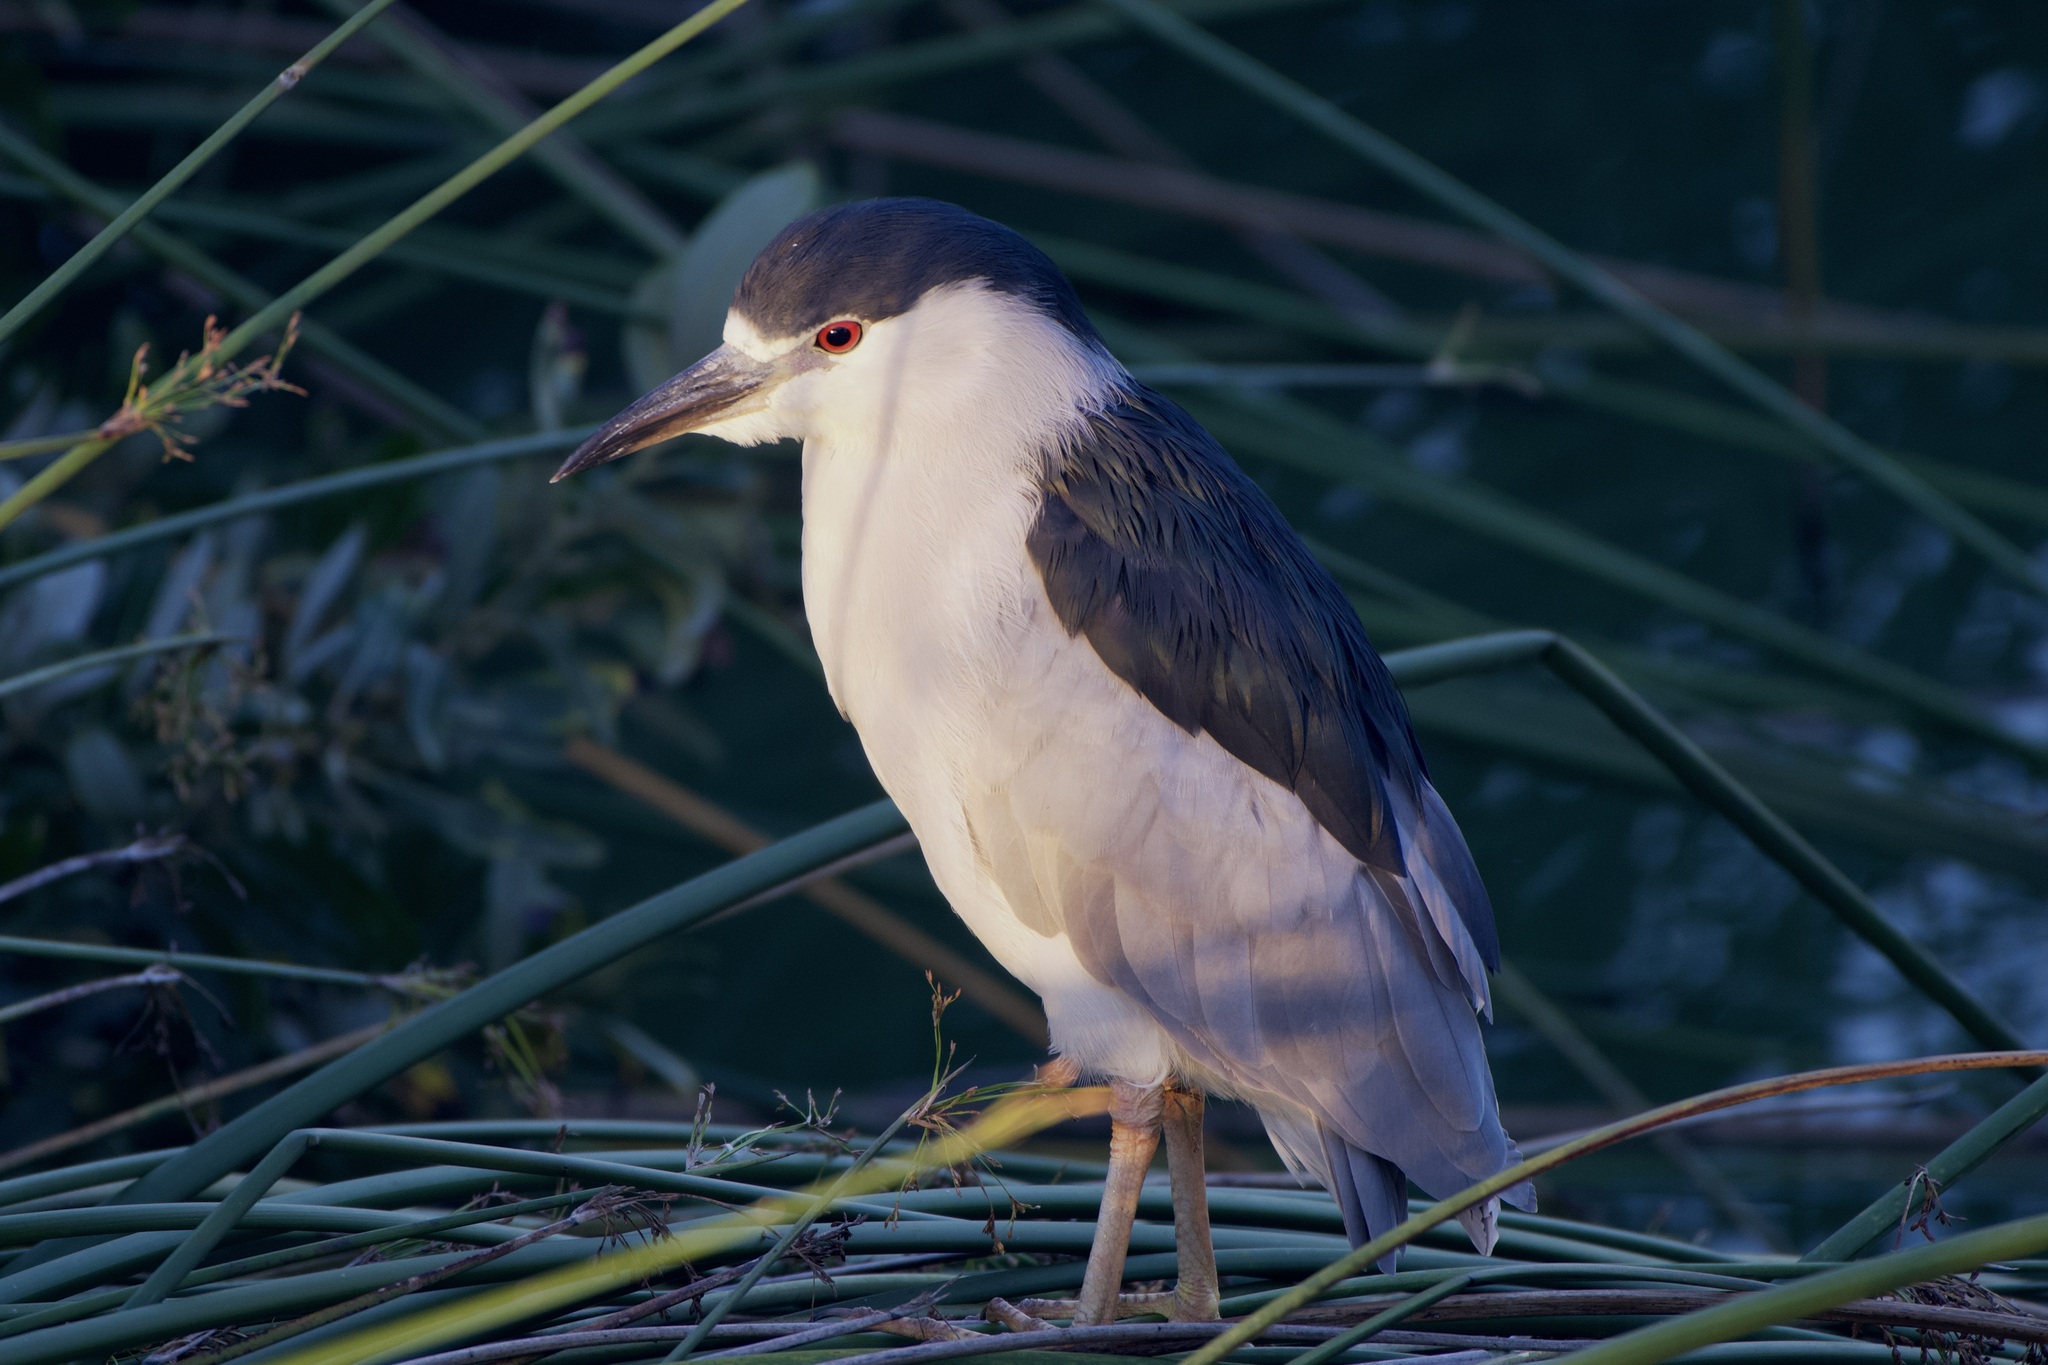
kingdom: Animalia
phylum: Chordata
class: Aves
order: Pelecaniformes
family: Ardeidae
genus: Nycticorax
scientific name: Nycticorax nycticorax
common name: Black-crowned night heron
